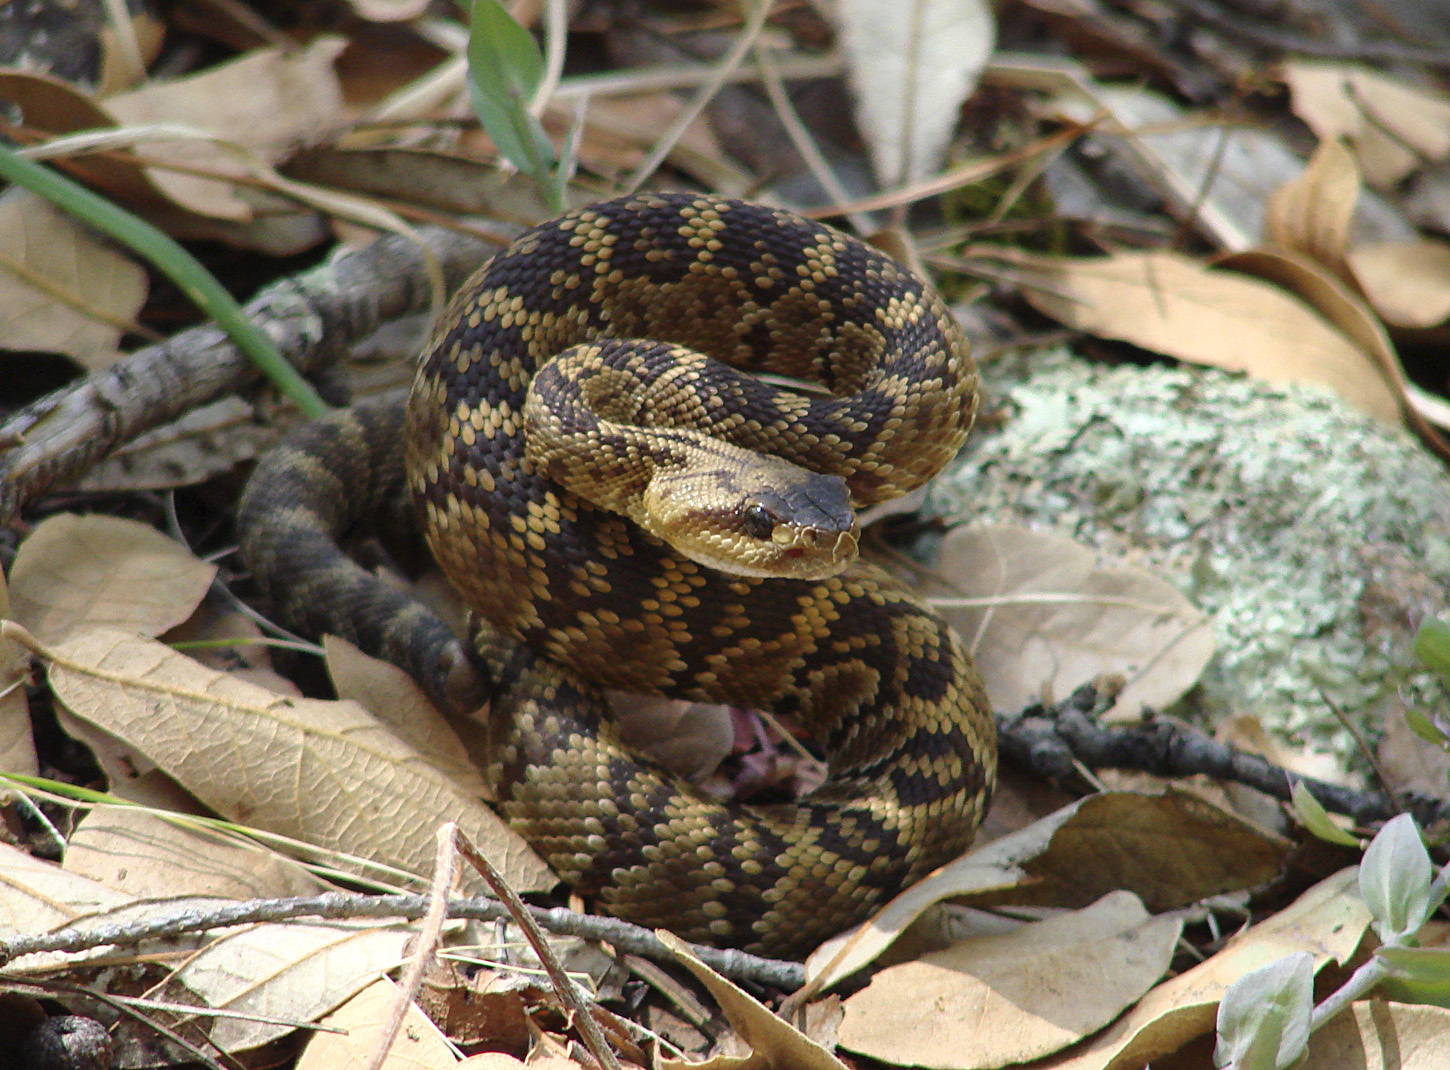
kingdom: Animalia
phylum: Chordata
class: Squamata
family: Viperidae
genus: Crotalus
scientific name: Crotalus molossus
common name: Black tailed rattlesnake
